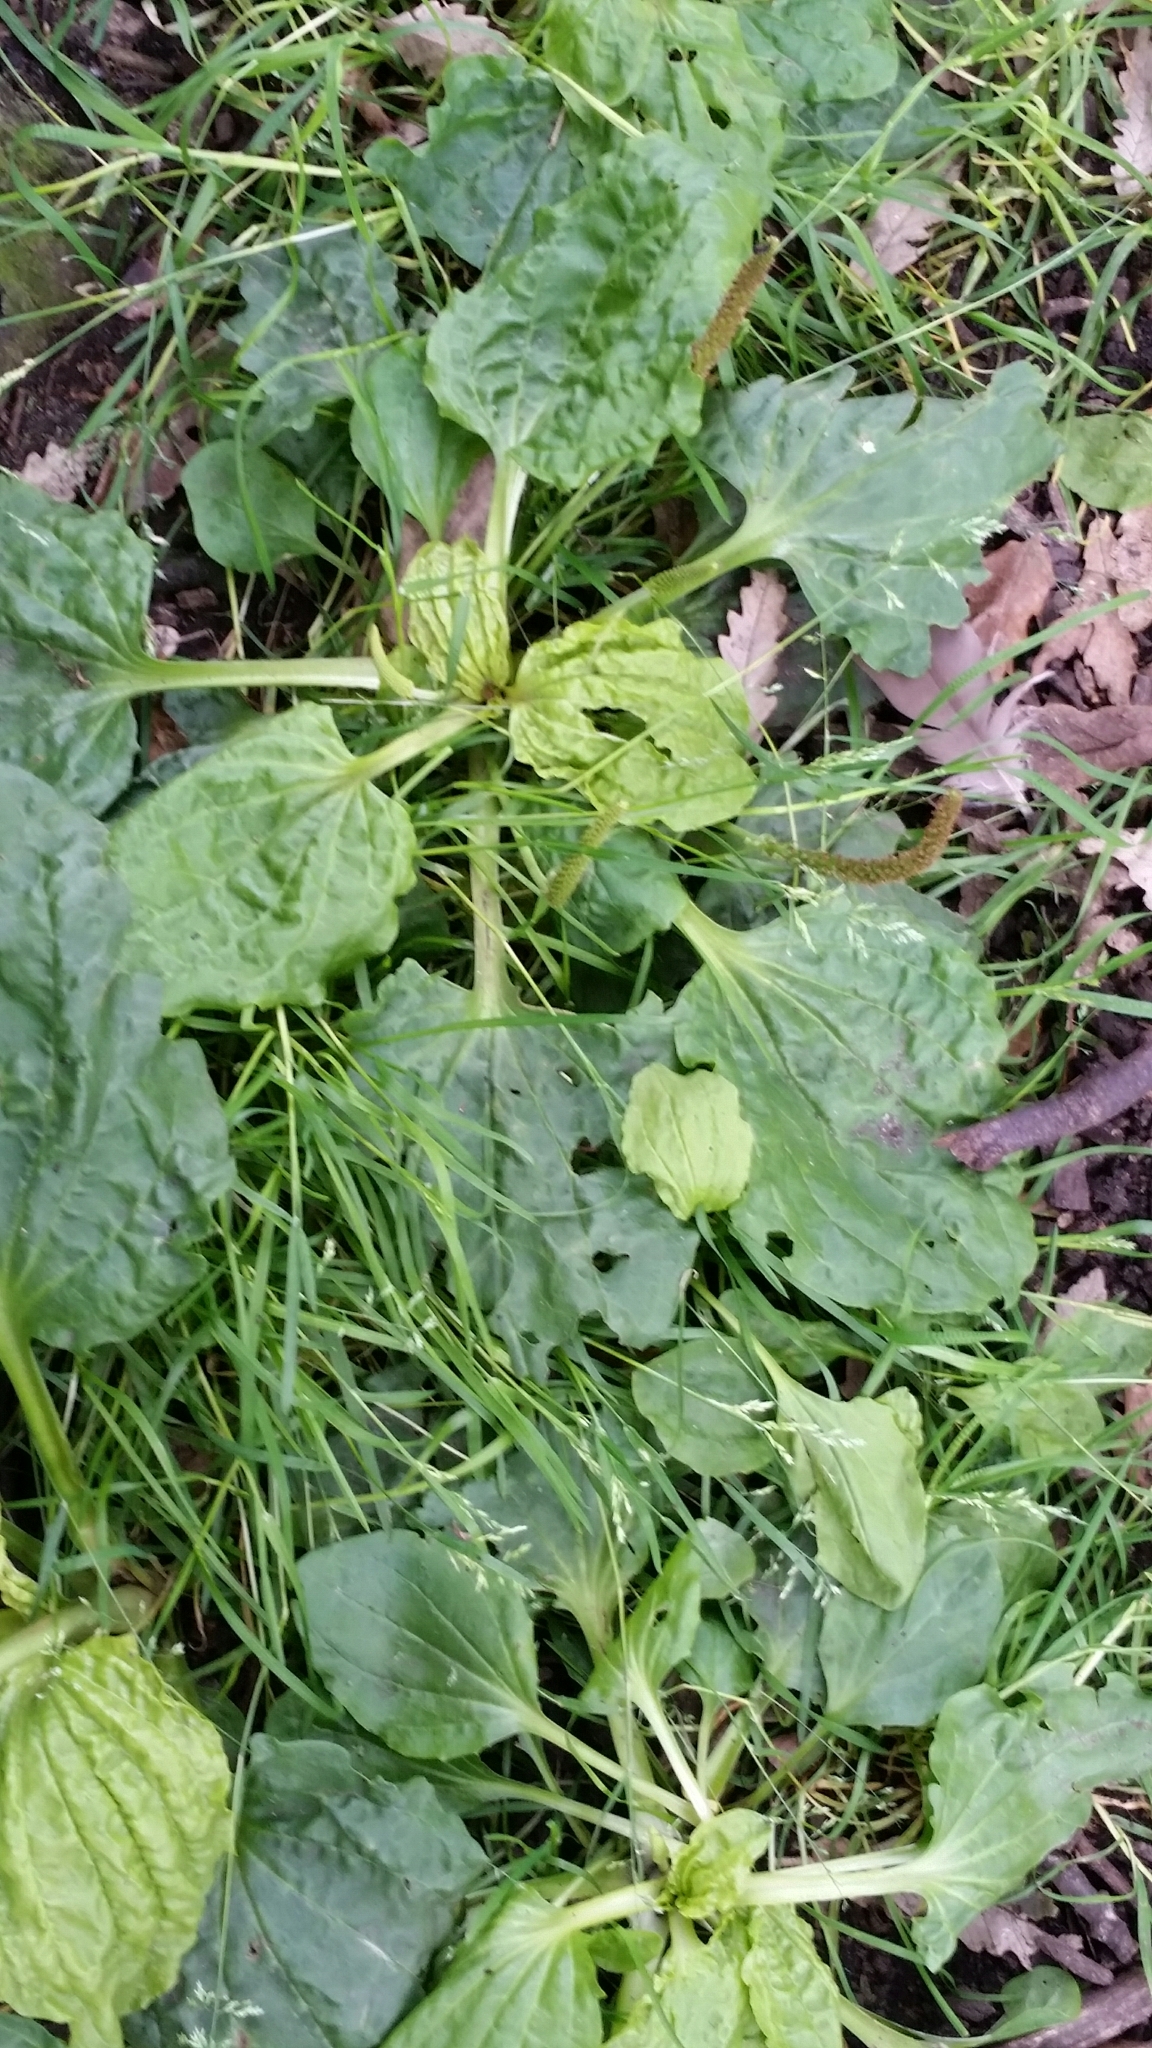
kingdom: Plantae
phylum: Tracheophyta
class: Magnoliopsida
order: Lamiales
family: Plantaginaceae
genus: Plantago
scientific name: Plantago major
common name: Common plantain
